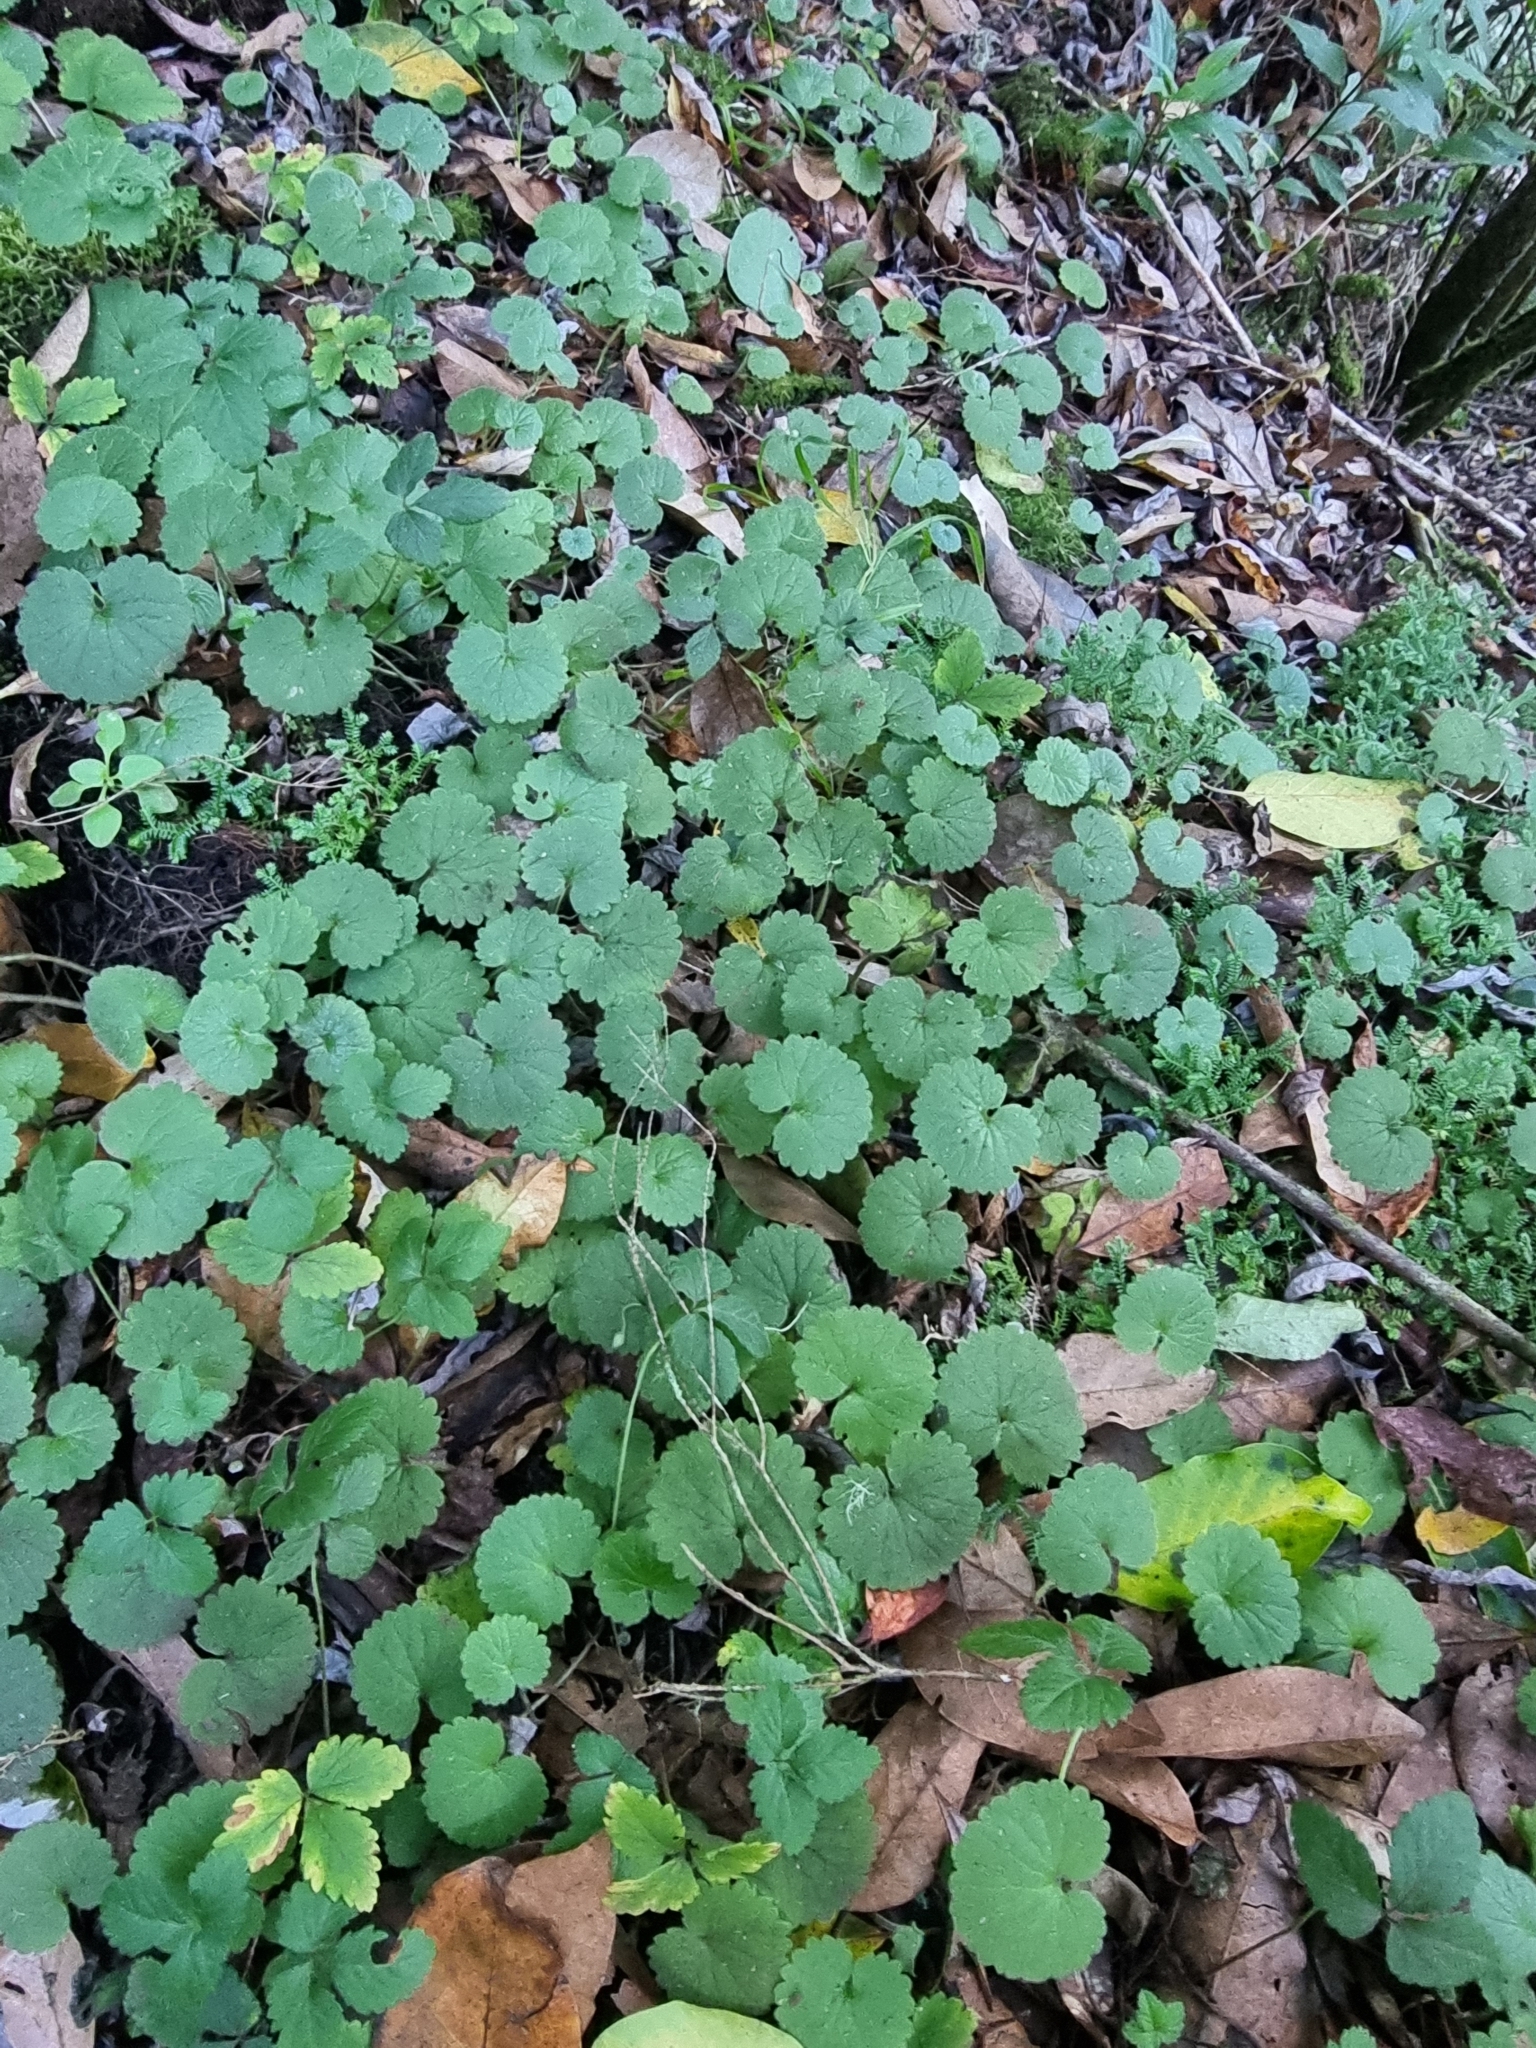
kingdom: Plantae
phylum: Tracheophyta
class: Magnoliopsida
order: Lamiales
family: Plantaginaceae
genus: Sibthorpia
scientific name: Sibthorpia peregrina
